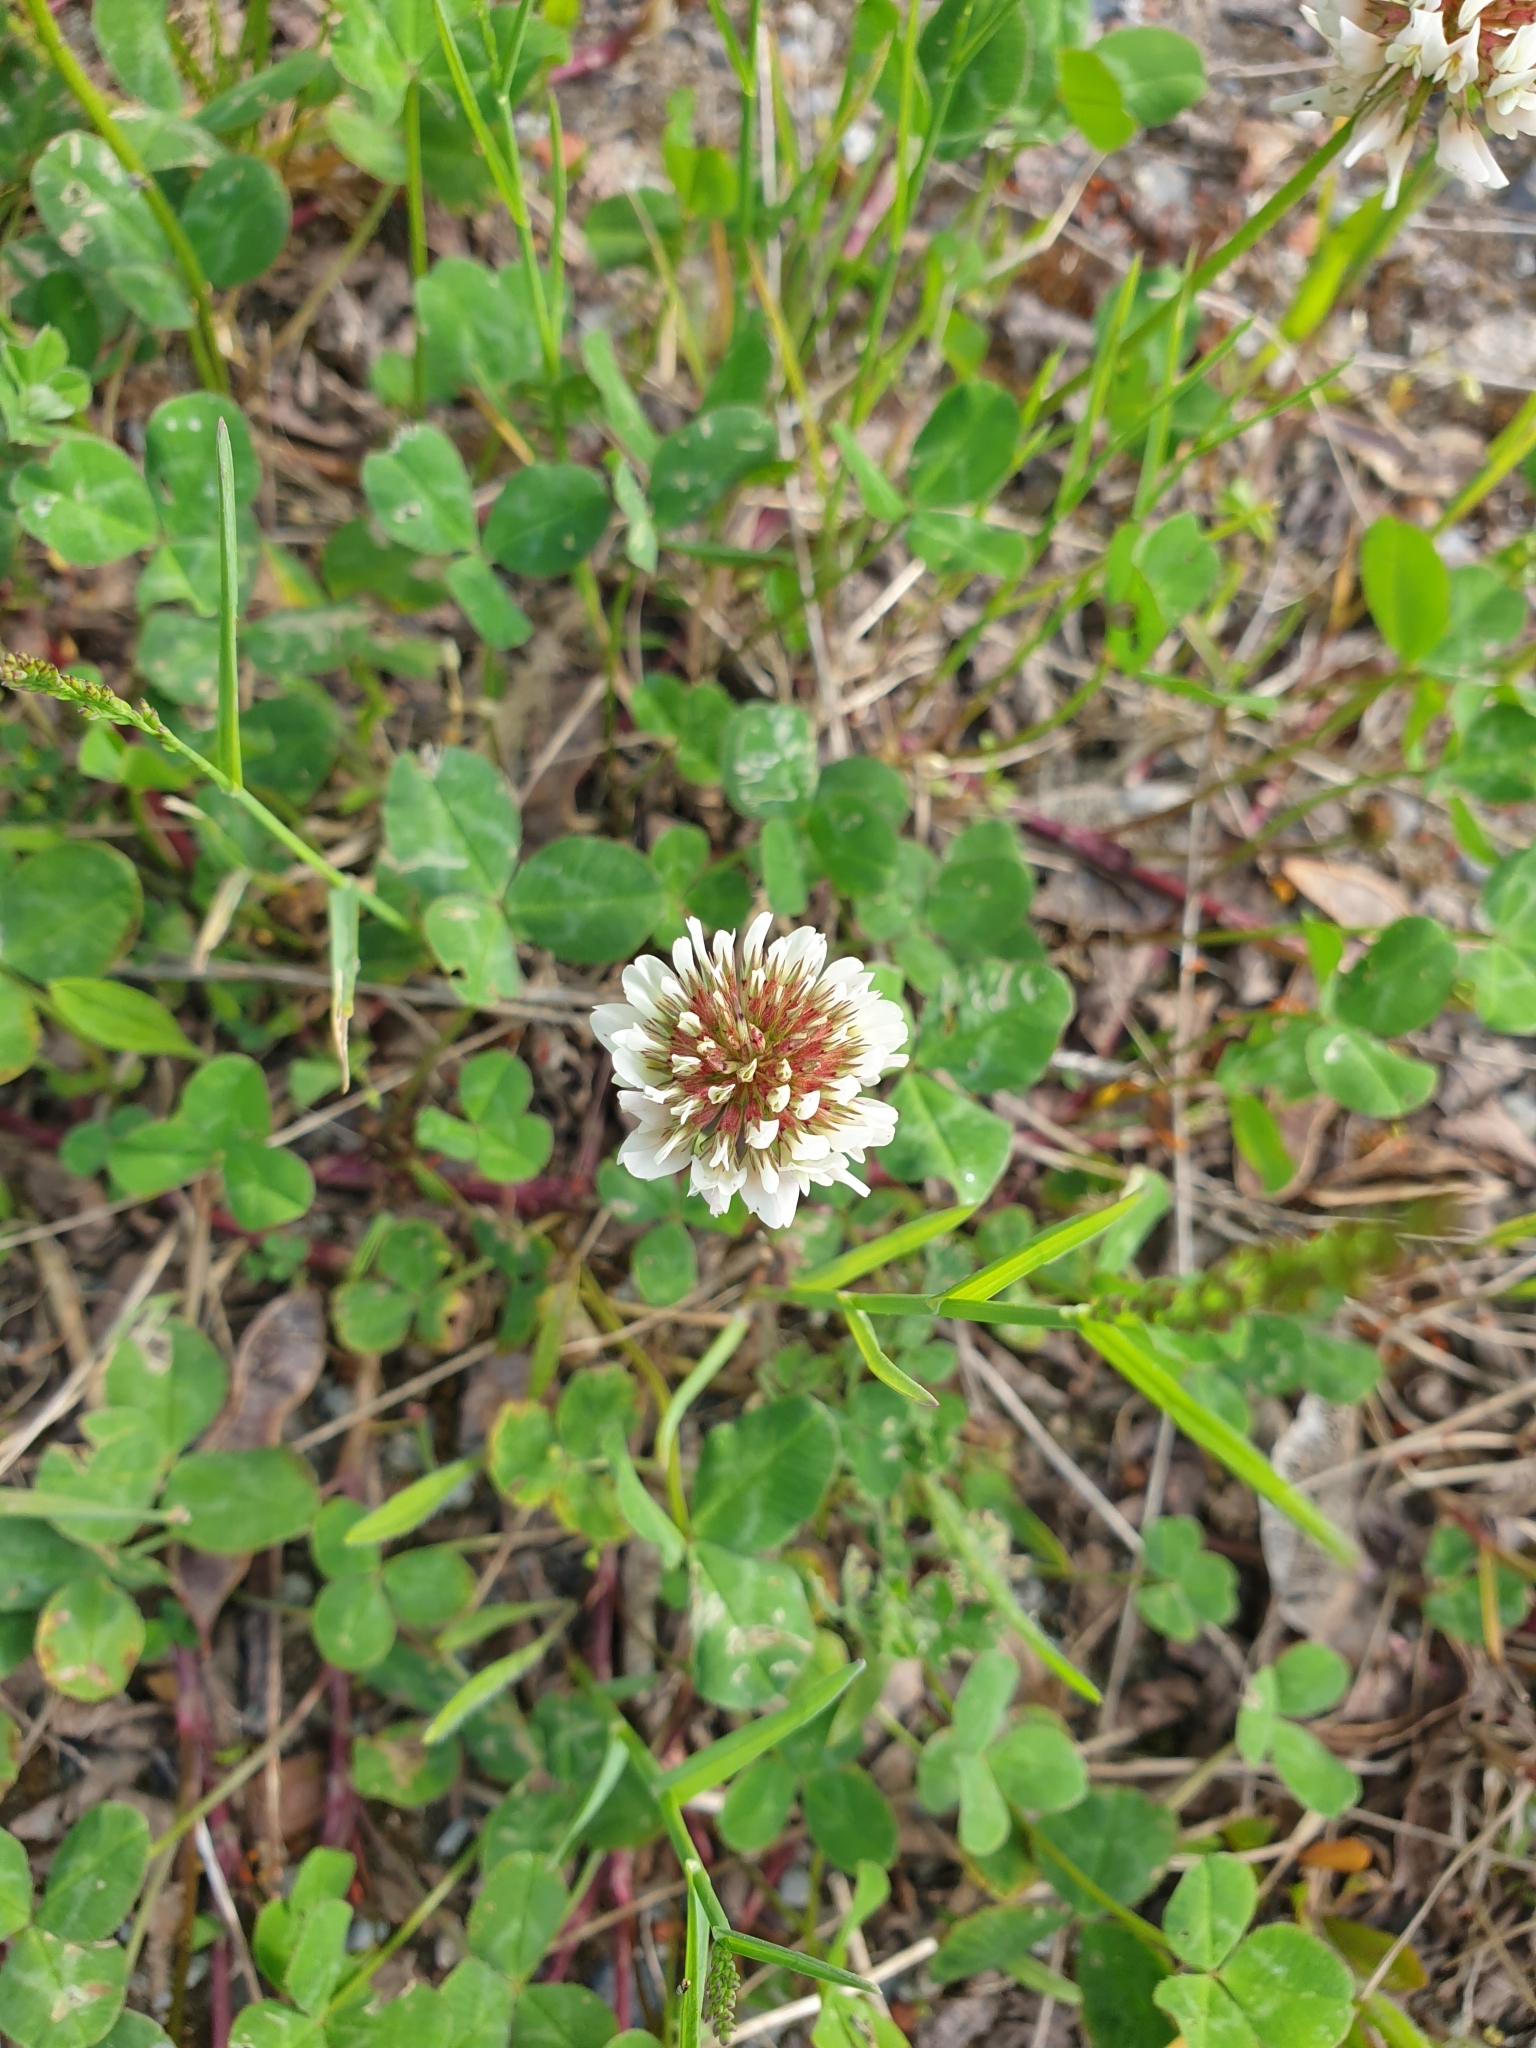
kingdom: Plantae
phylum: Tracheophyta
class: Magnoliopsida
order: Fabales
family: Fabaceae
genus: Trifolium
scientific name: Trifolium repens
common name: White clover
